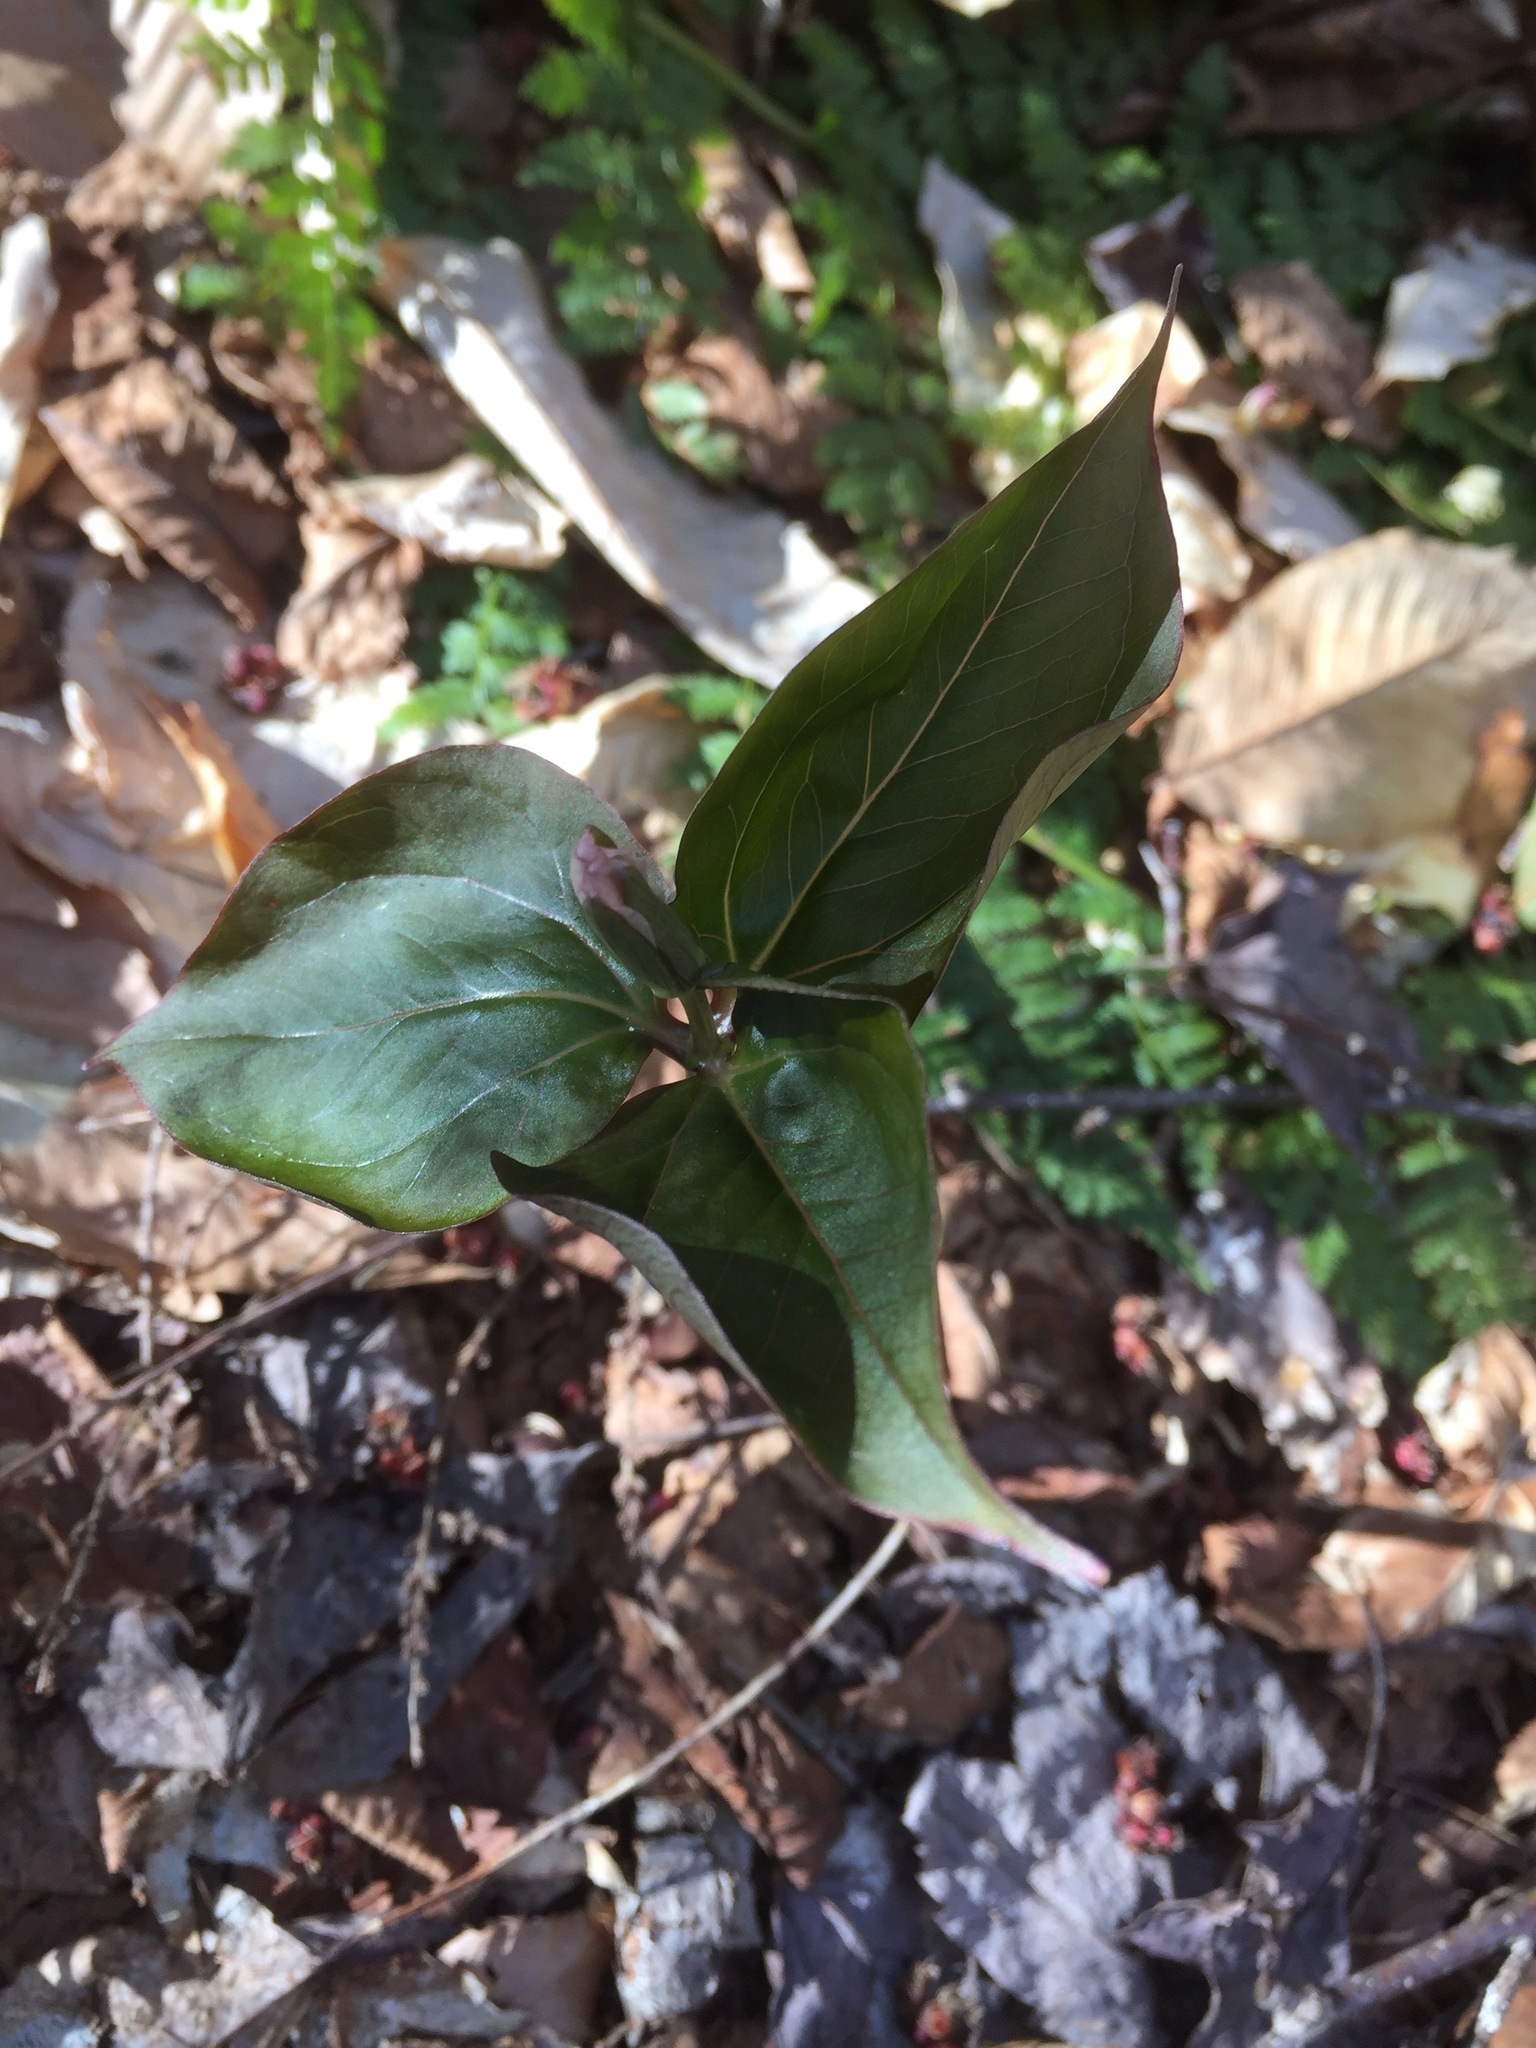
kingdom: Plantae
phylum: Tracheophyta
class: Liliopsida
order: Liliales
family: Melanthiaceae
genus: Trillium
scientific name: Trillium undulatum
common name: Paint trillium
